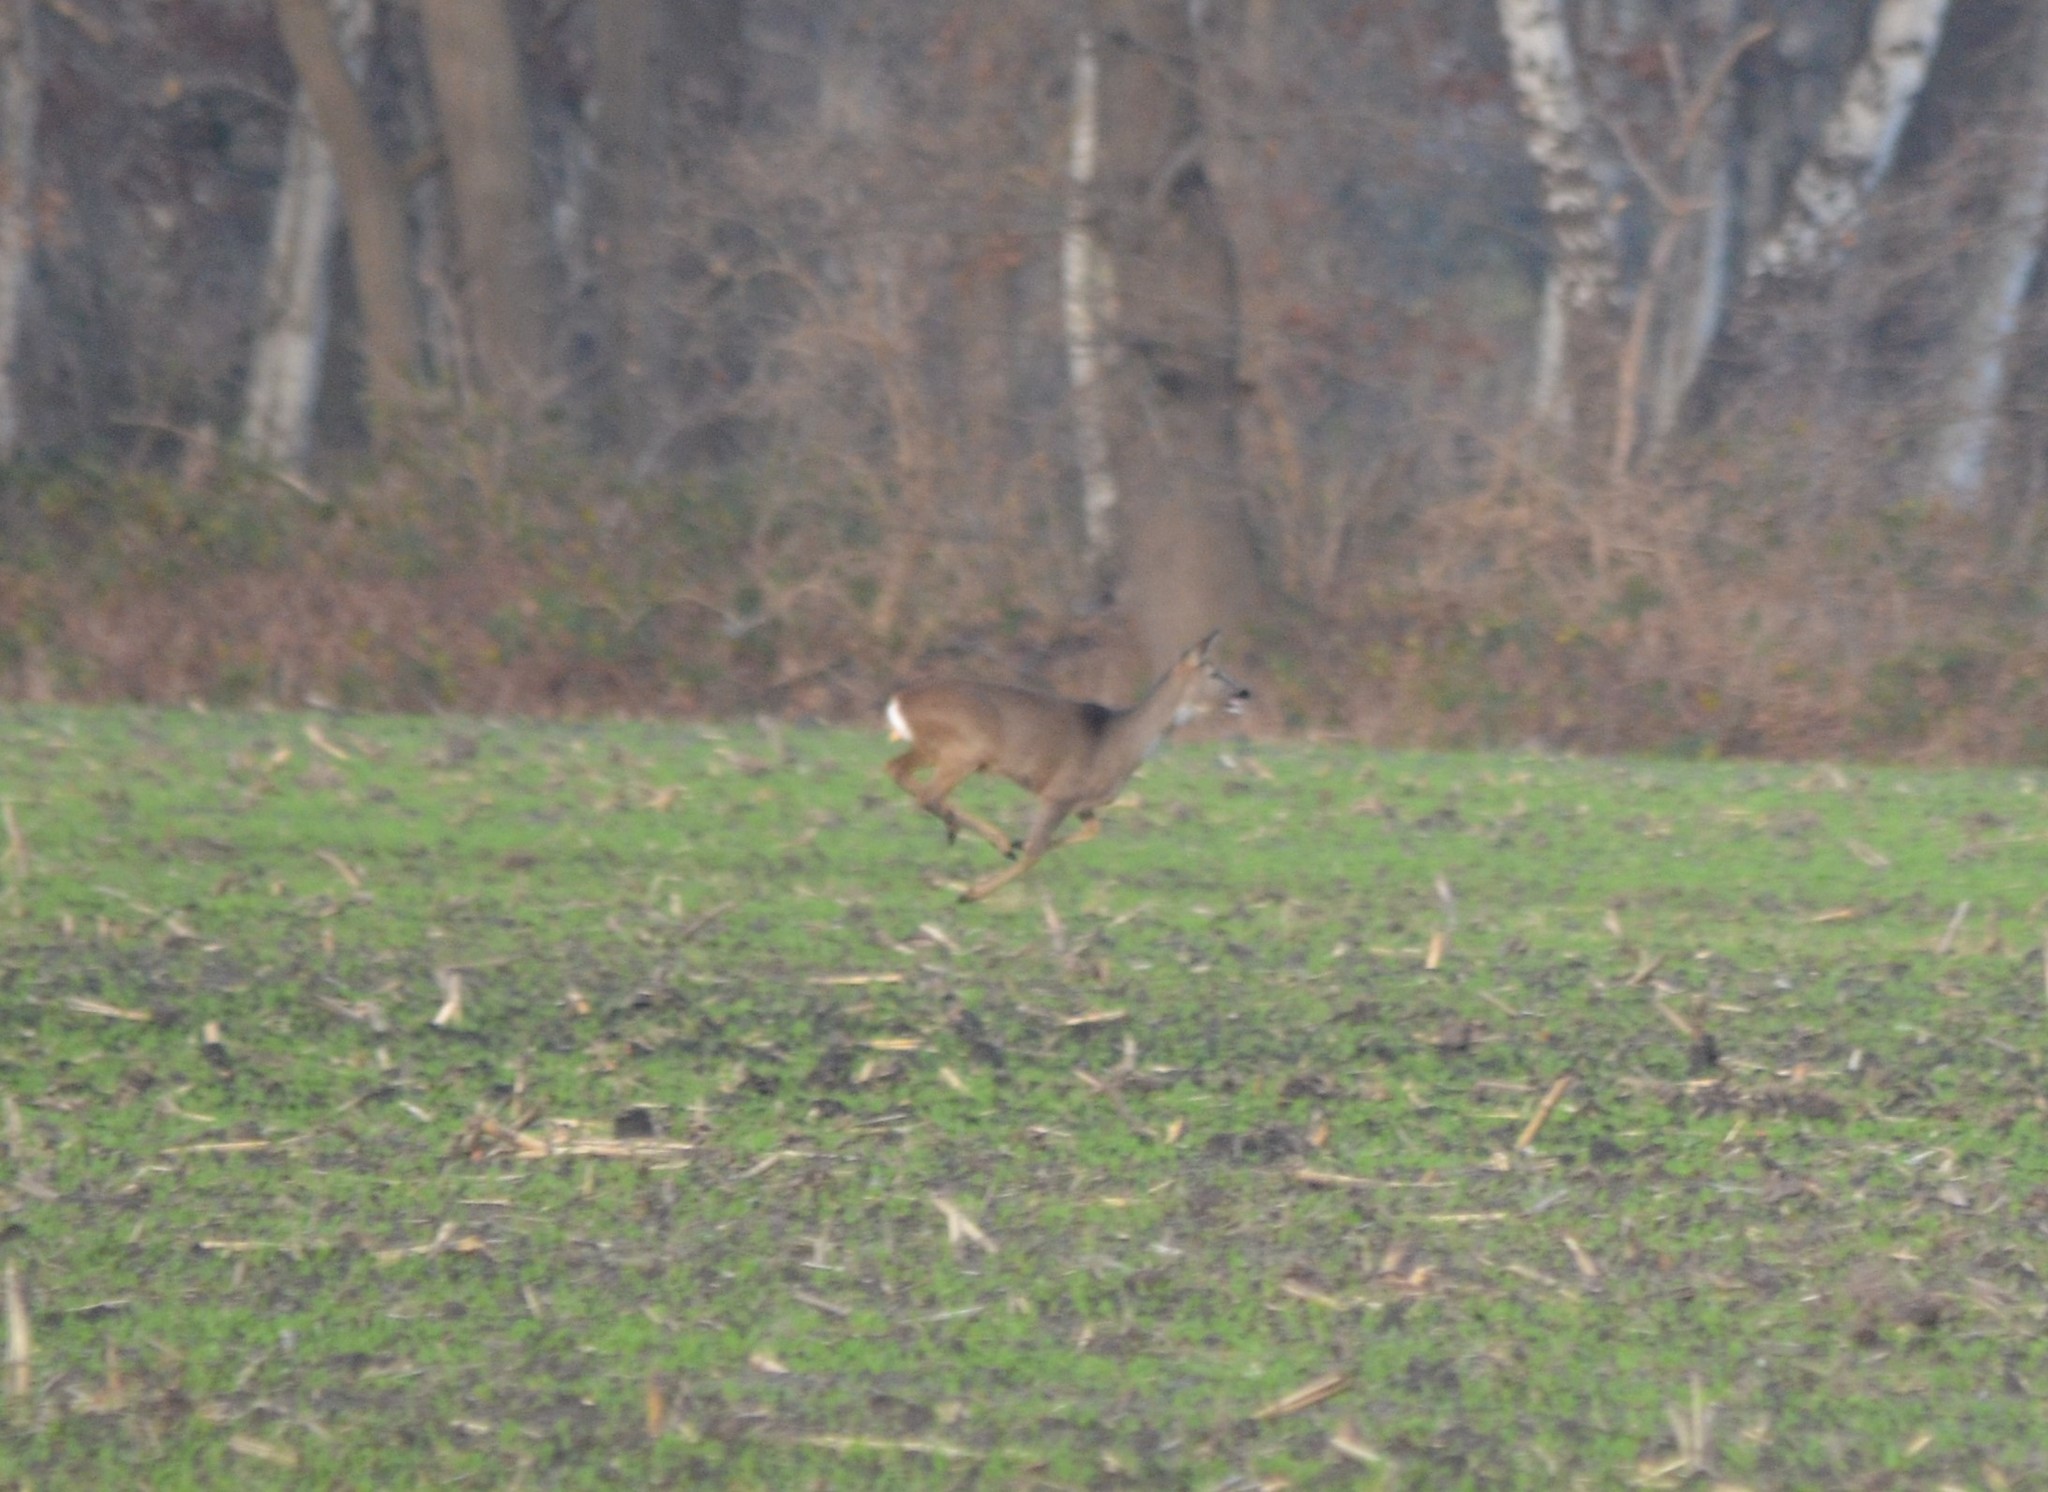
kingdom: Animalia
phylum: Chordata
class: Mammalia
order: Artiodactyla
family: Cervidae
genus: Capreolus
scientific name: Capreolus capreolus
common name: Western roe deer
